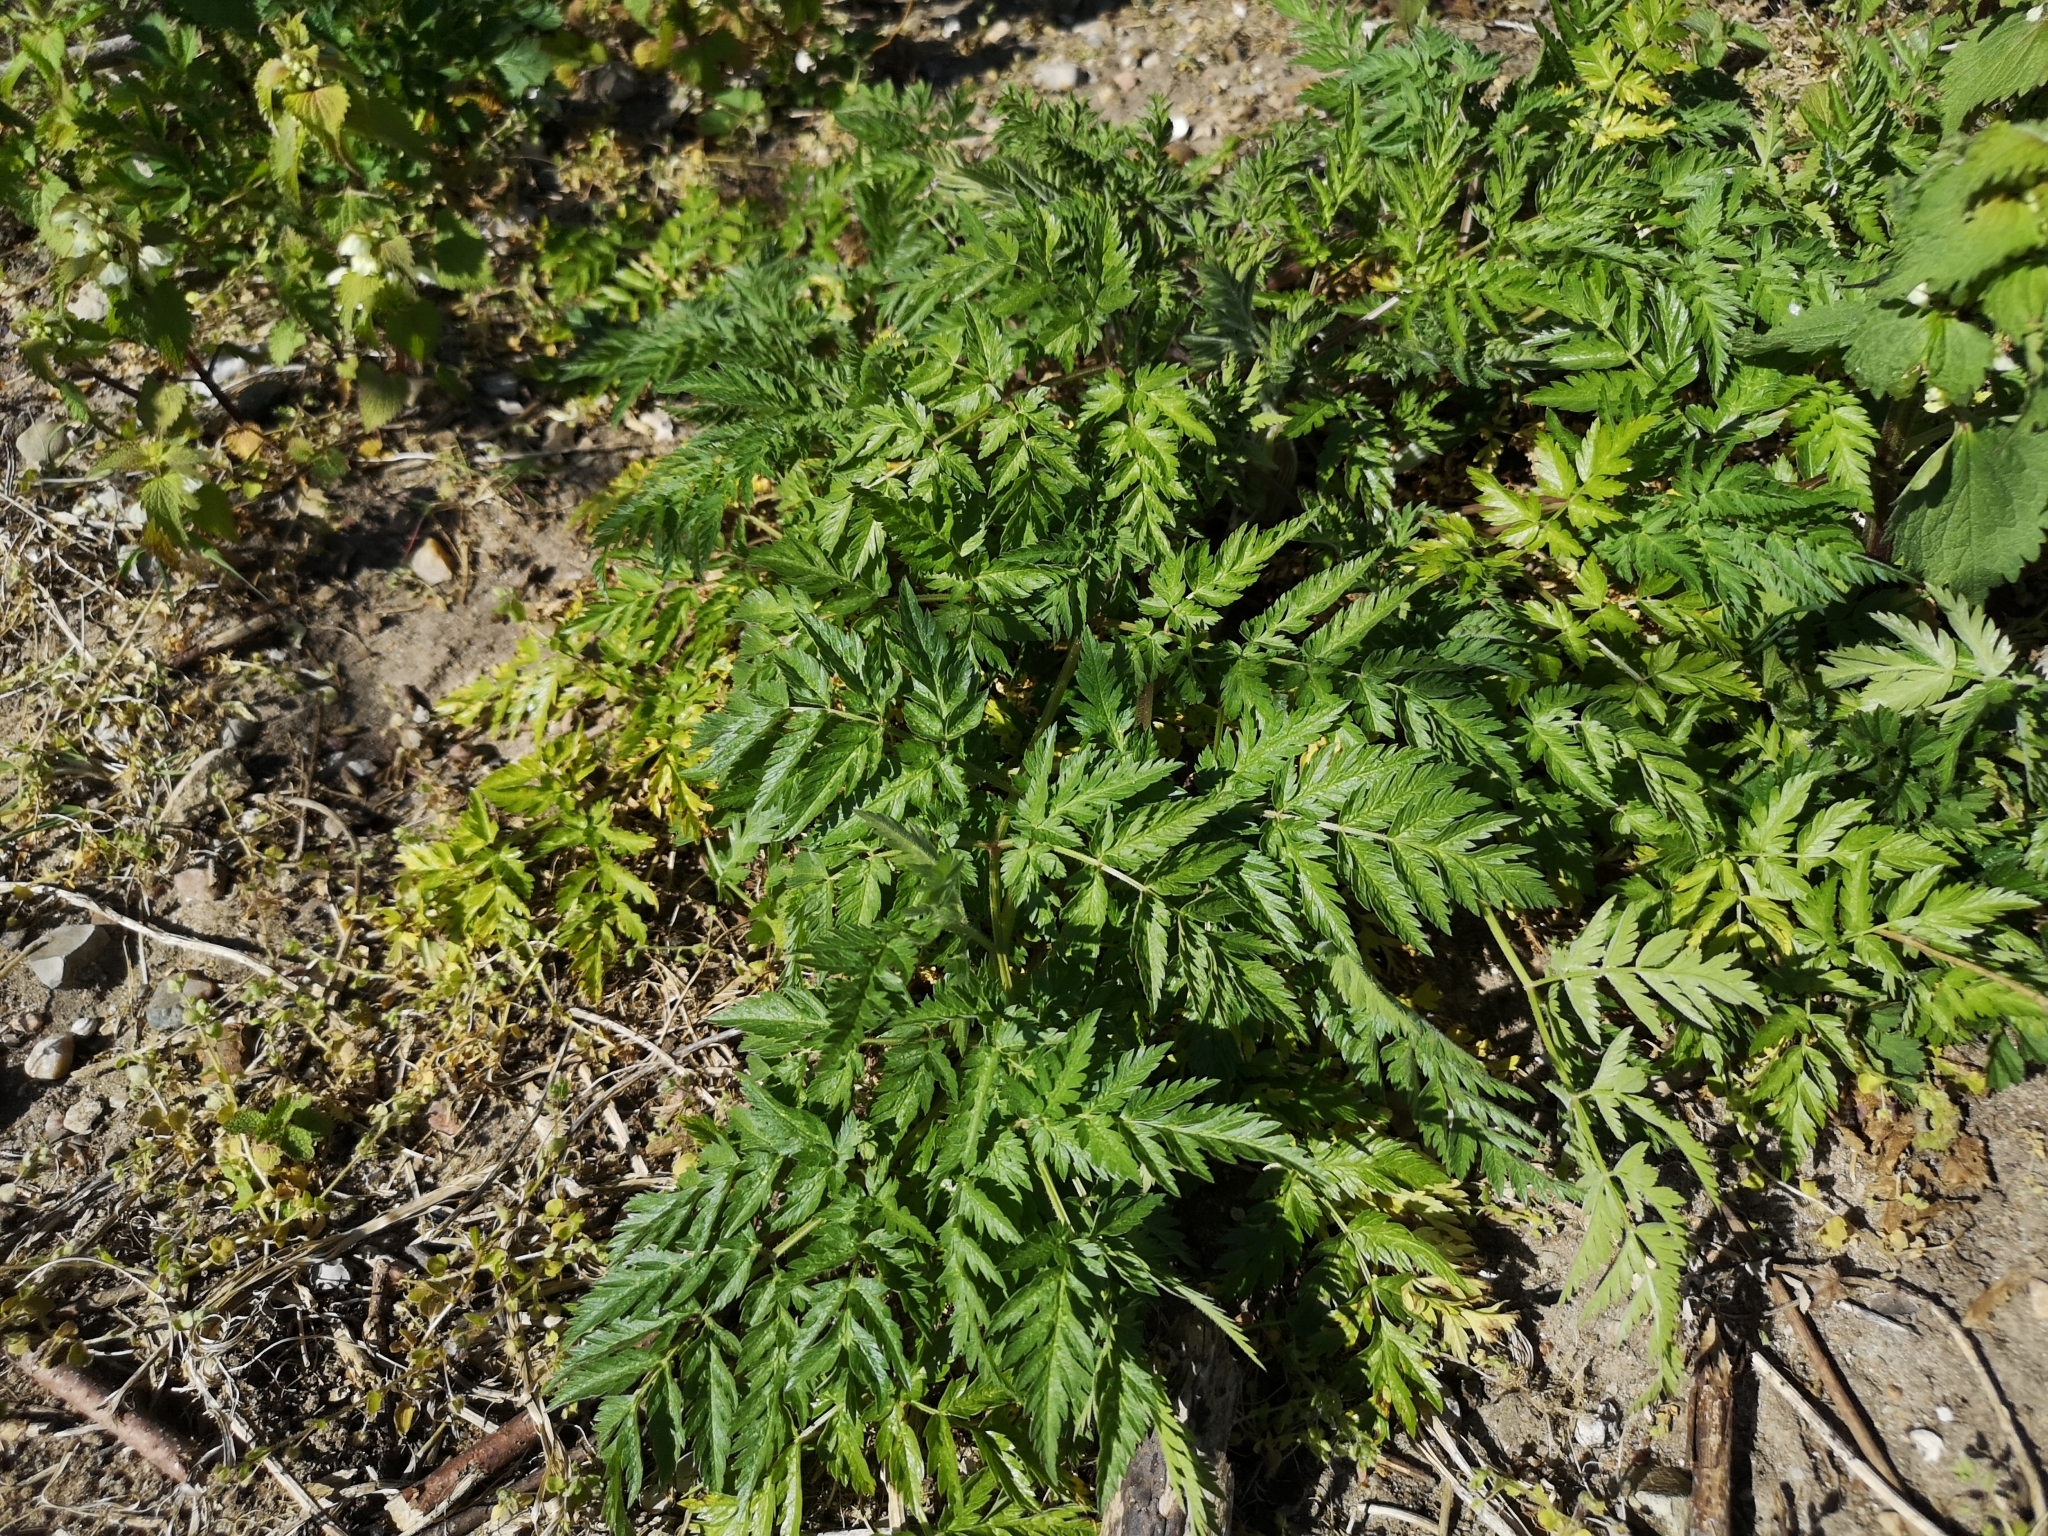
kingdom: Plantae
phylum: Tracheophyta
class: Magnoliopsida
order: Apiales
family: Apiaceae
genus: Anthriscus
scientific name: Anthriscus sylvestris
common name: Cow parsley
